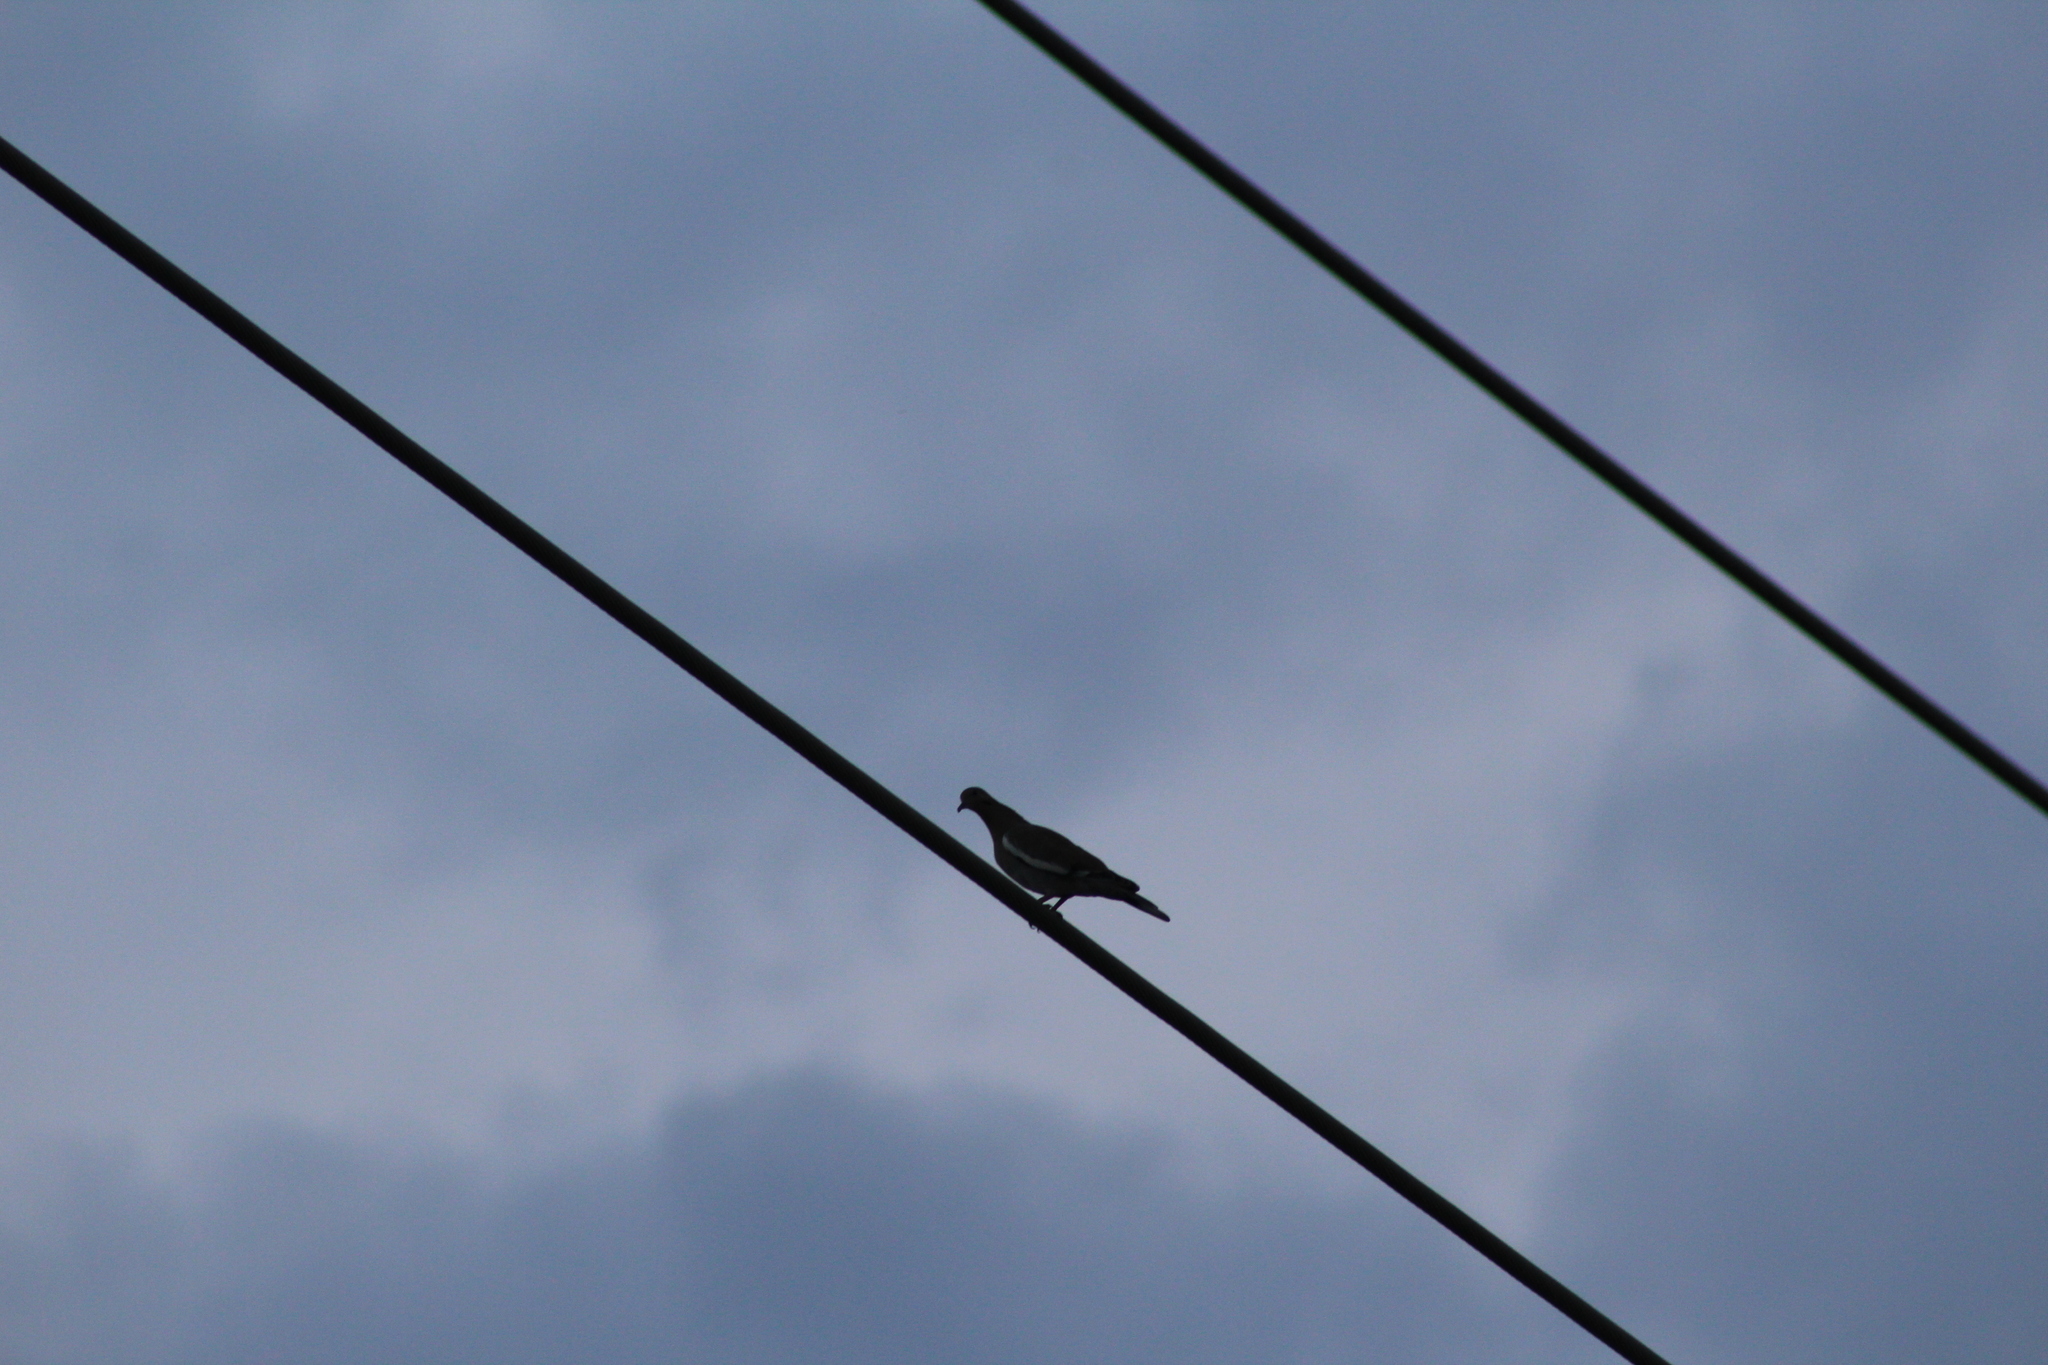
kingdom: Animalia
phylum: Chordata
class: Aves
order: Columbiformes
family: Columbidae
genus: Zenaida
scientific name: Zenaida asiatica
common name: White-winged dove
